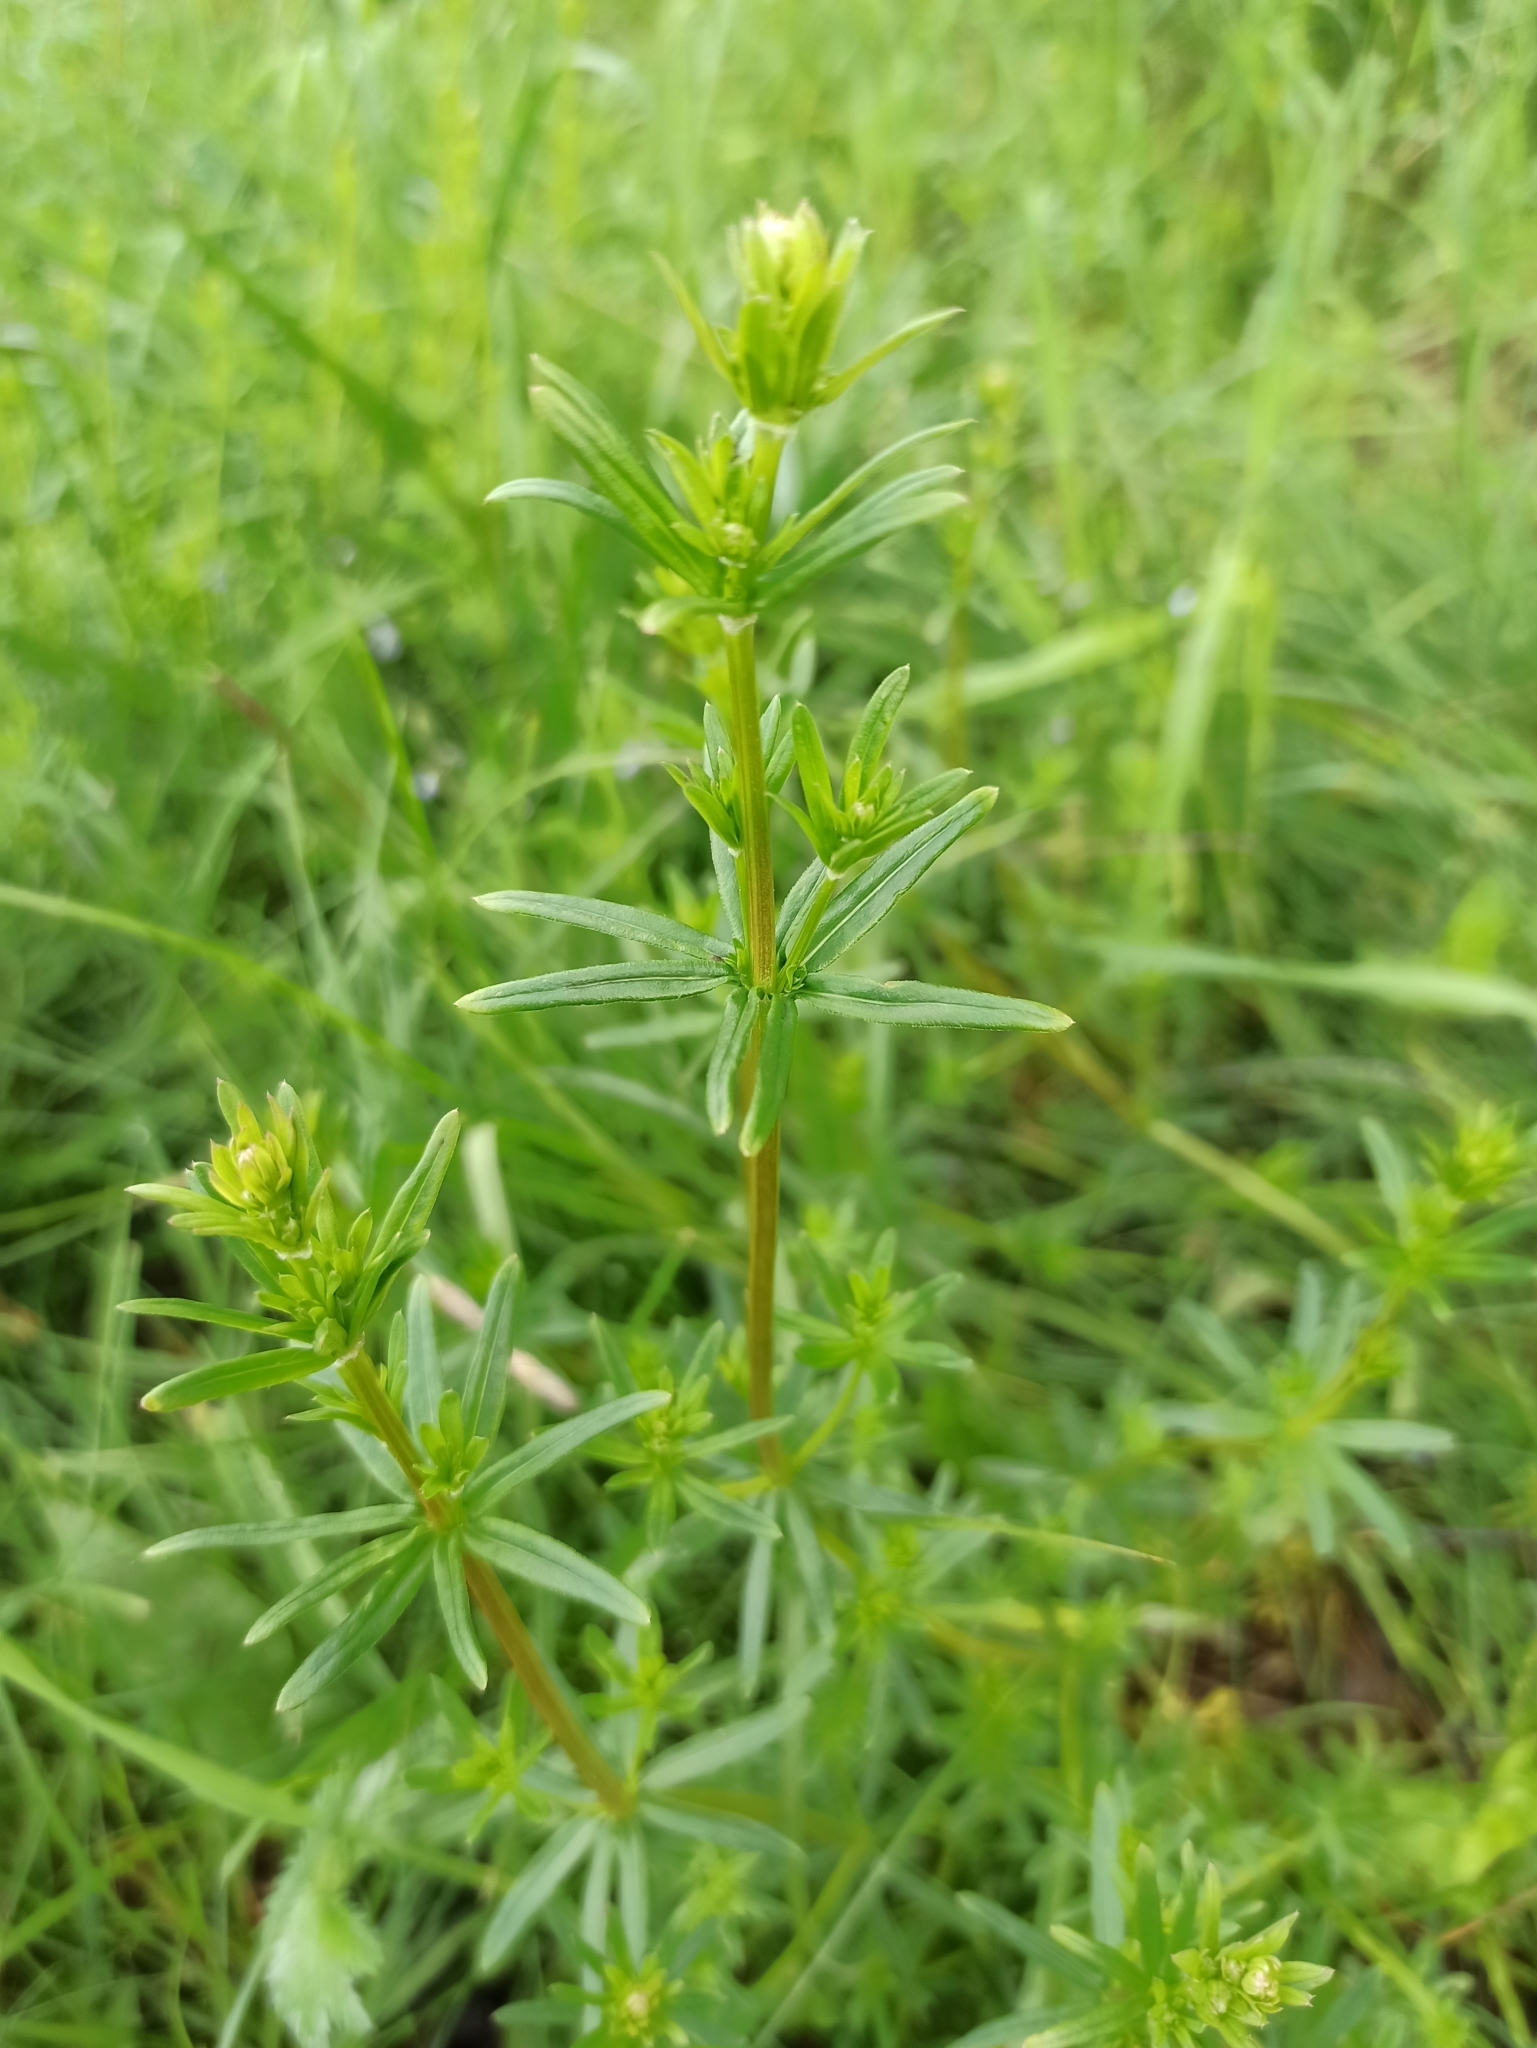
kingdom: Plantae
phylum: Tracheophyta
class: Magnoliopsida
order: Gentianales
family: Rubiaceae
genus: Galium
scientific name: Galium mollugo
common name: Hedge bedstraw
